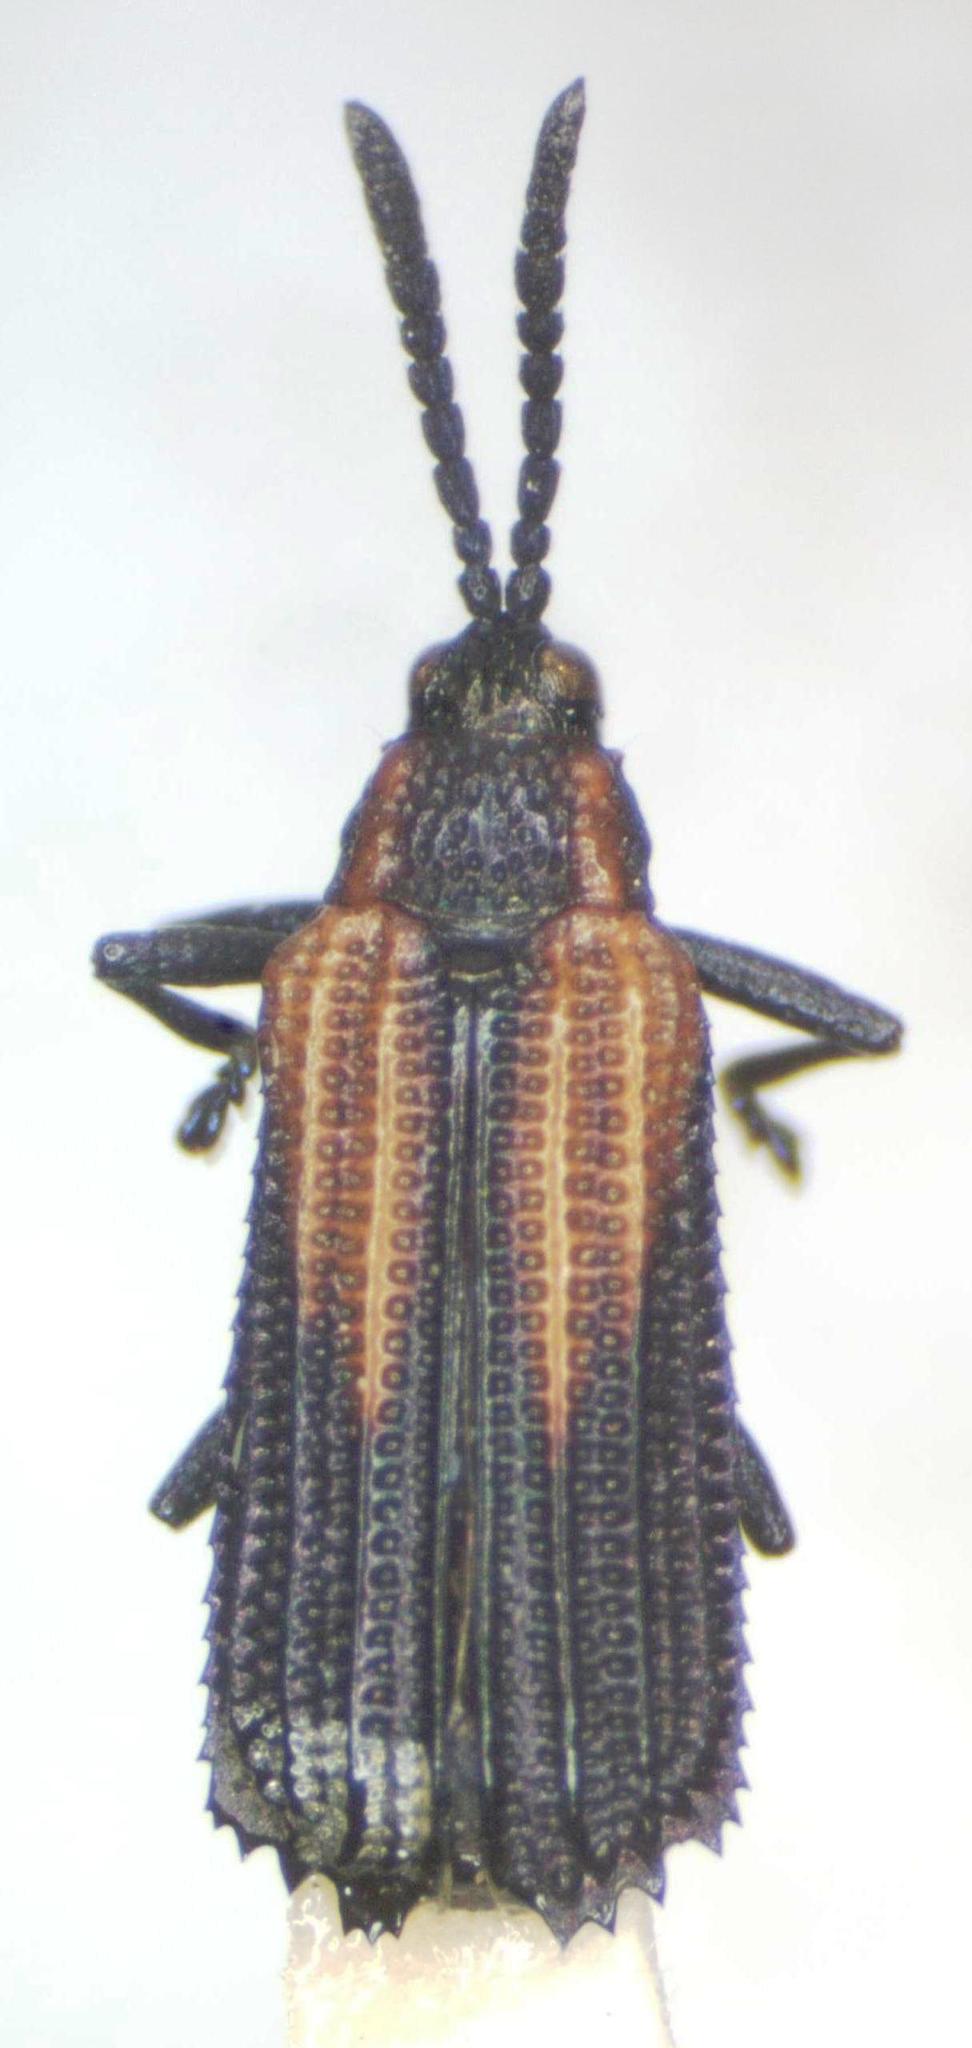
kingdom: Animalia
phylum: Arthropoda
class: Insecta
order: Coleoptera
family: Chrysomelidae
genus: Pentispa
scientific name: Pentispa fairmairei
